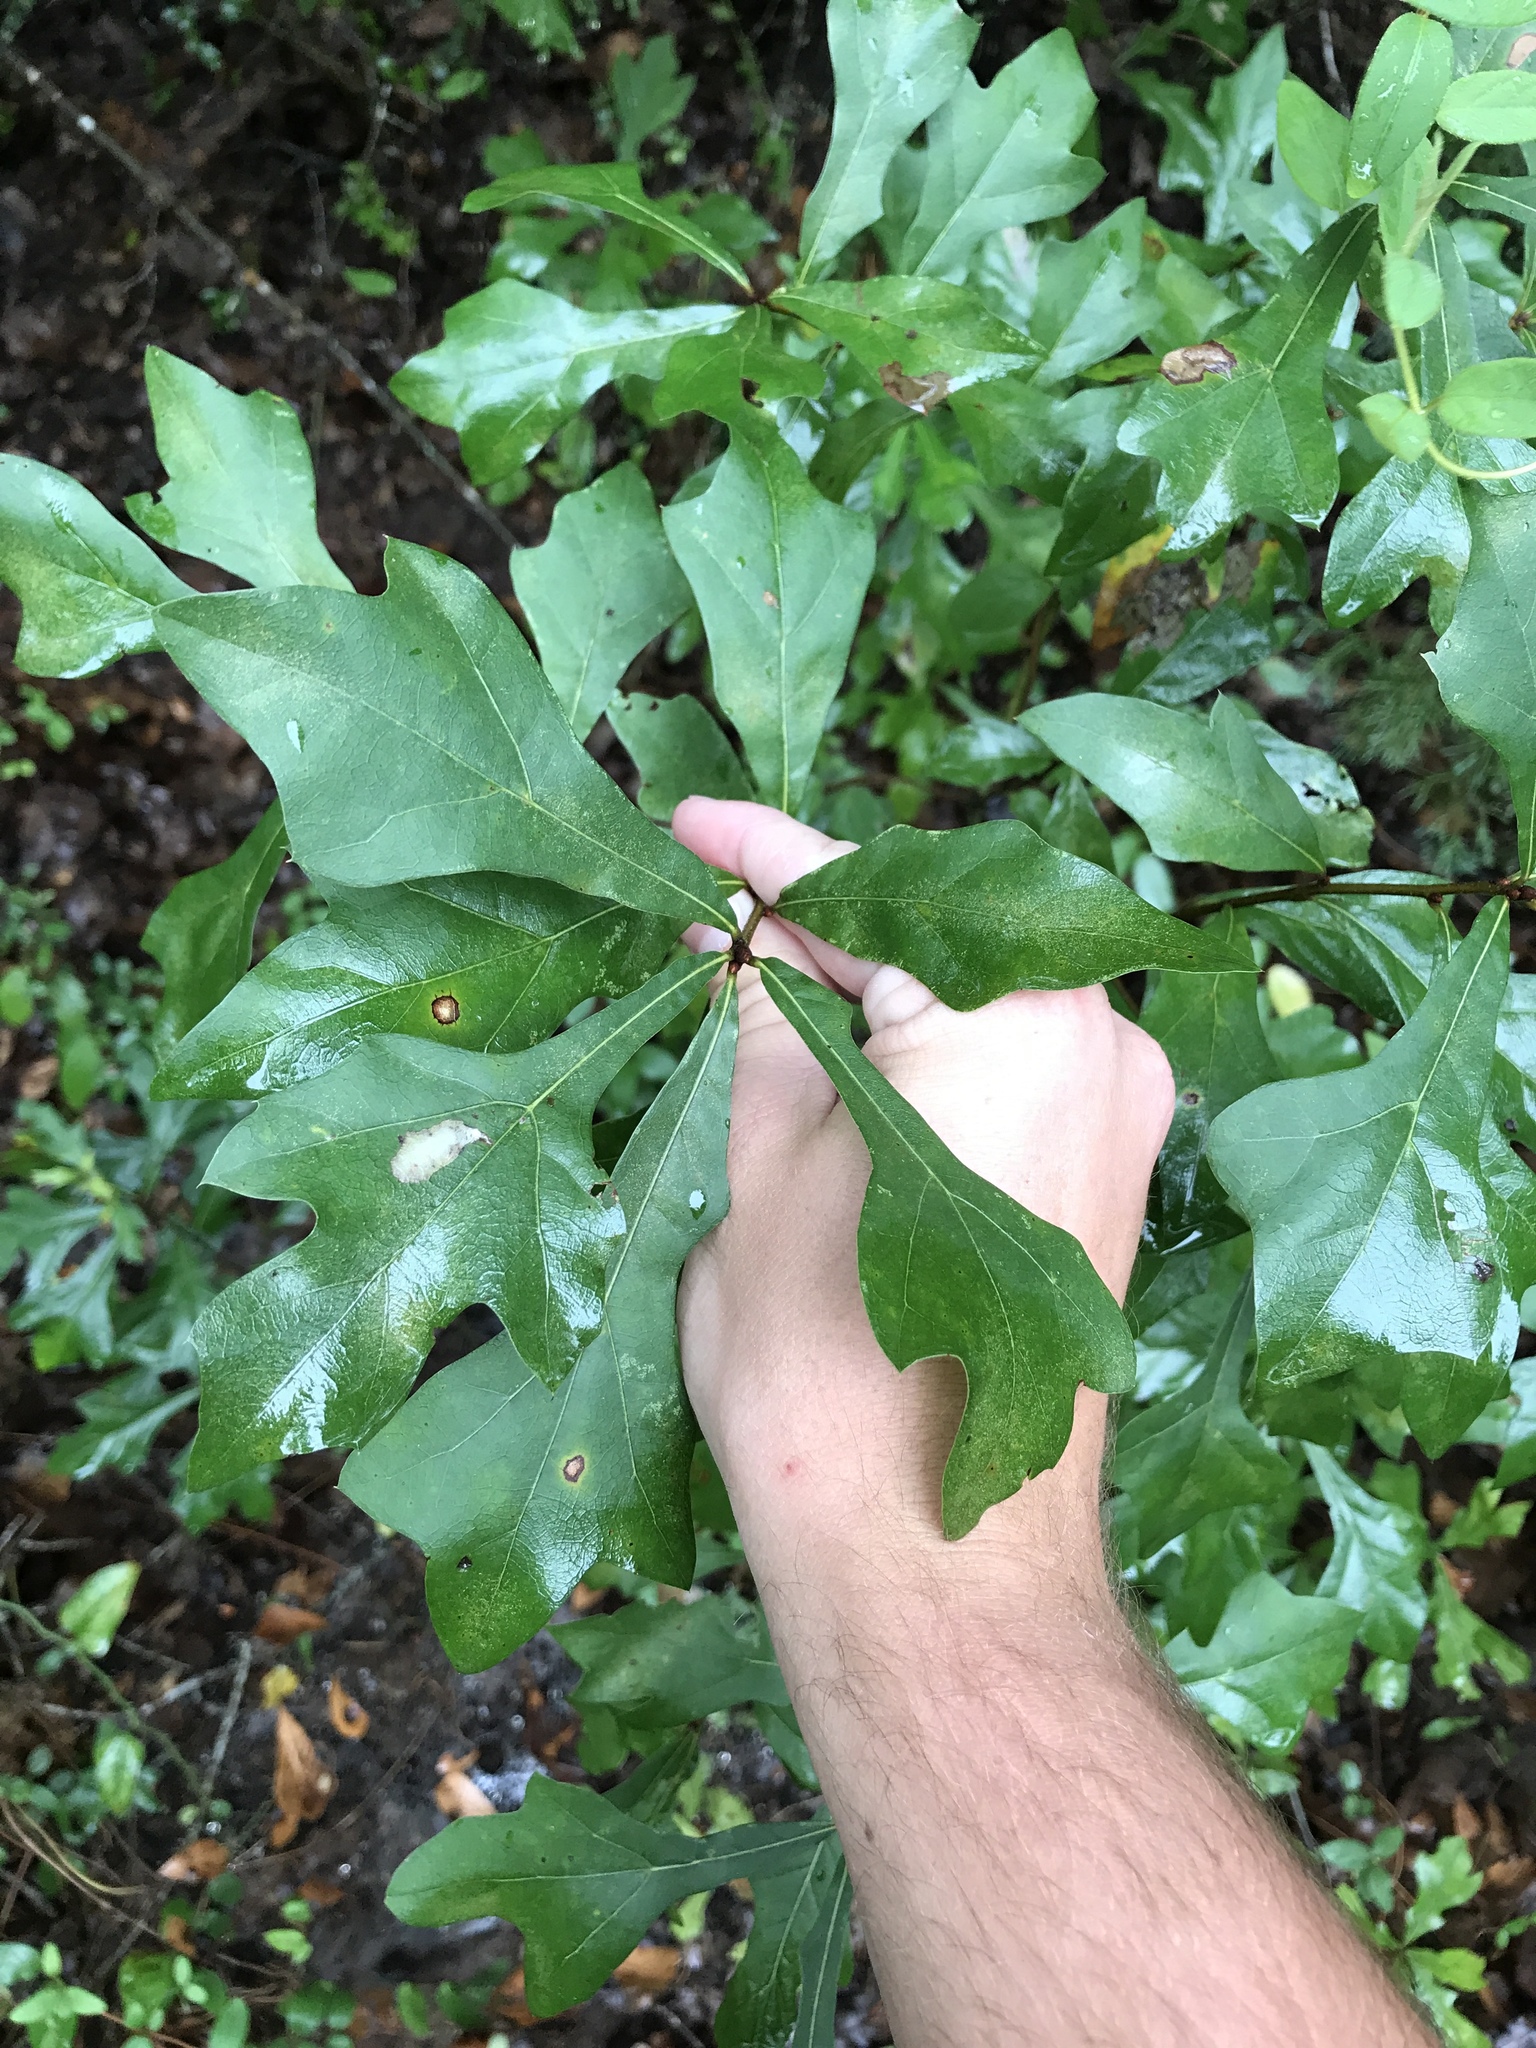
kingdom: Plantae
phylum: Tracheophyta
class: Magnoliopsida
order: Fagales
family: Fagaceae
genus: Quercus
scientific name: Quercus nigra
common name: Water oak
